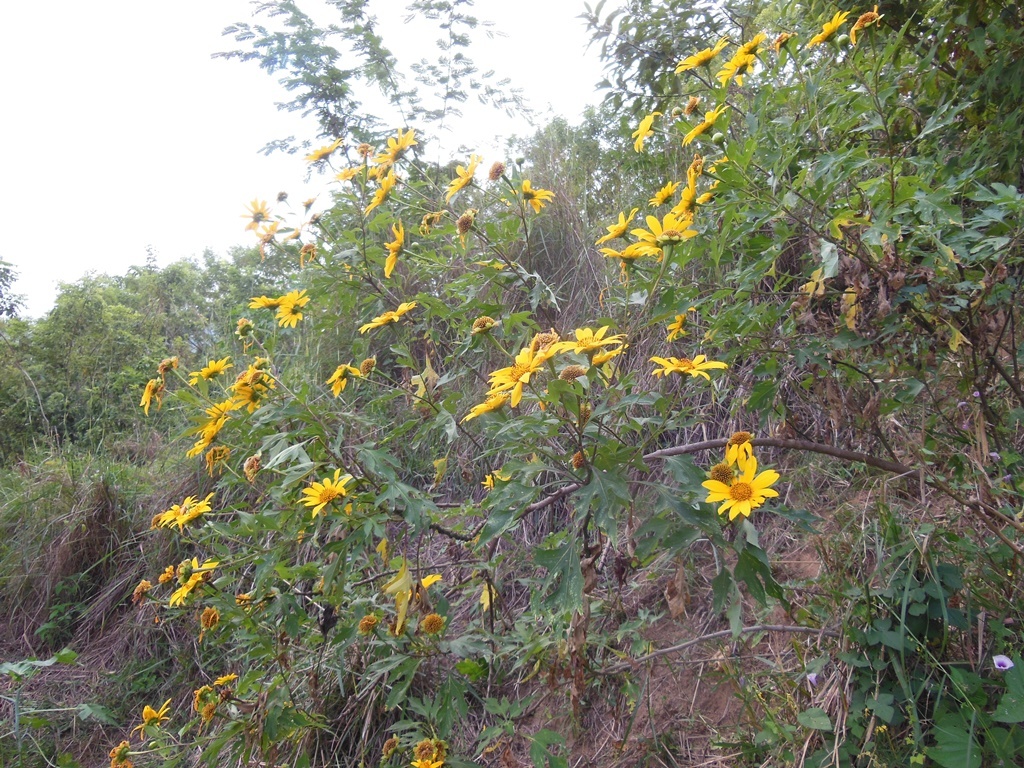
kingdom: Plantae
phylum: Tracheophyta
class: Magnoliopsida
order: Asterales
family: Asteraceae
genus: Tithonia
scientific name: Tithonia diversifolia
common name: Tree marigold
